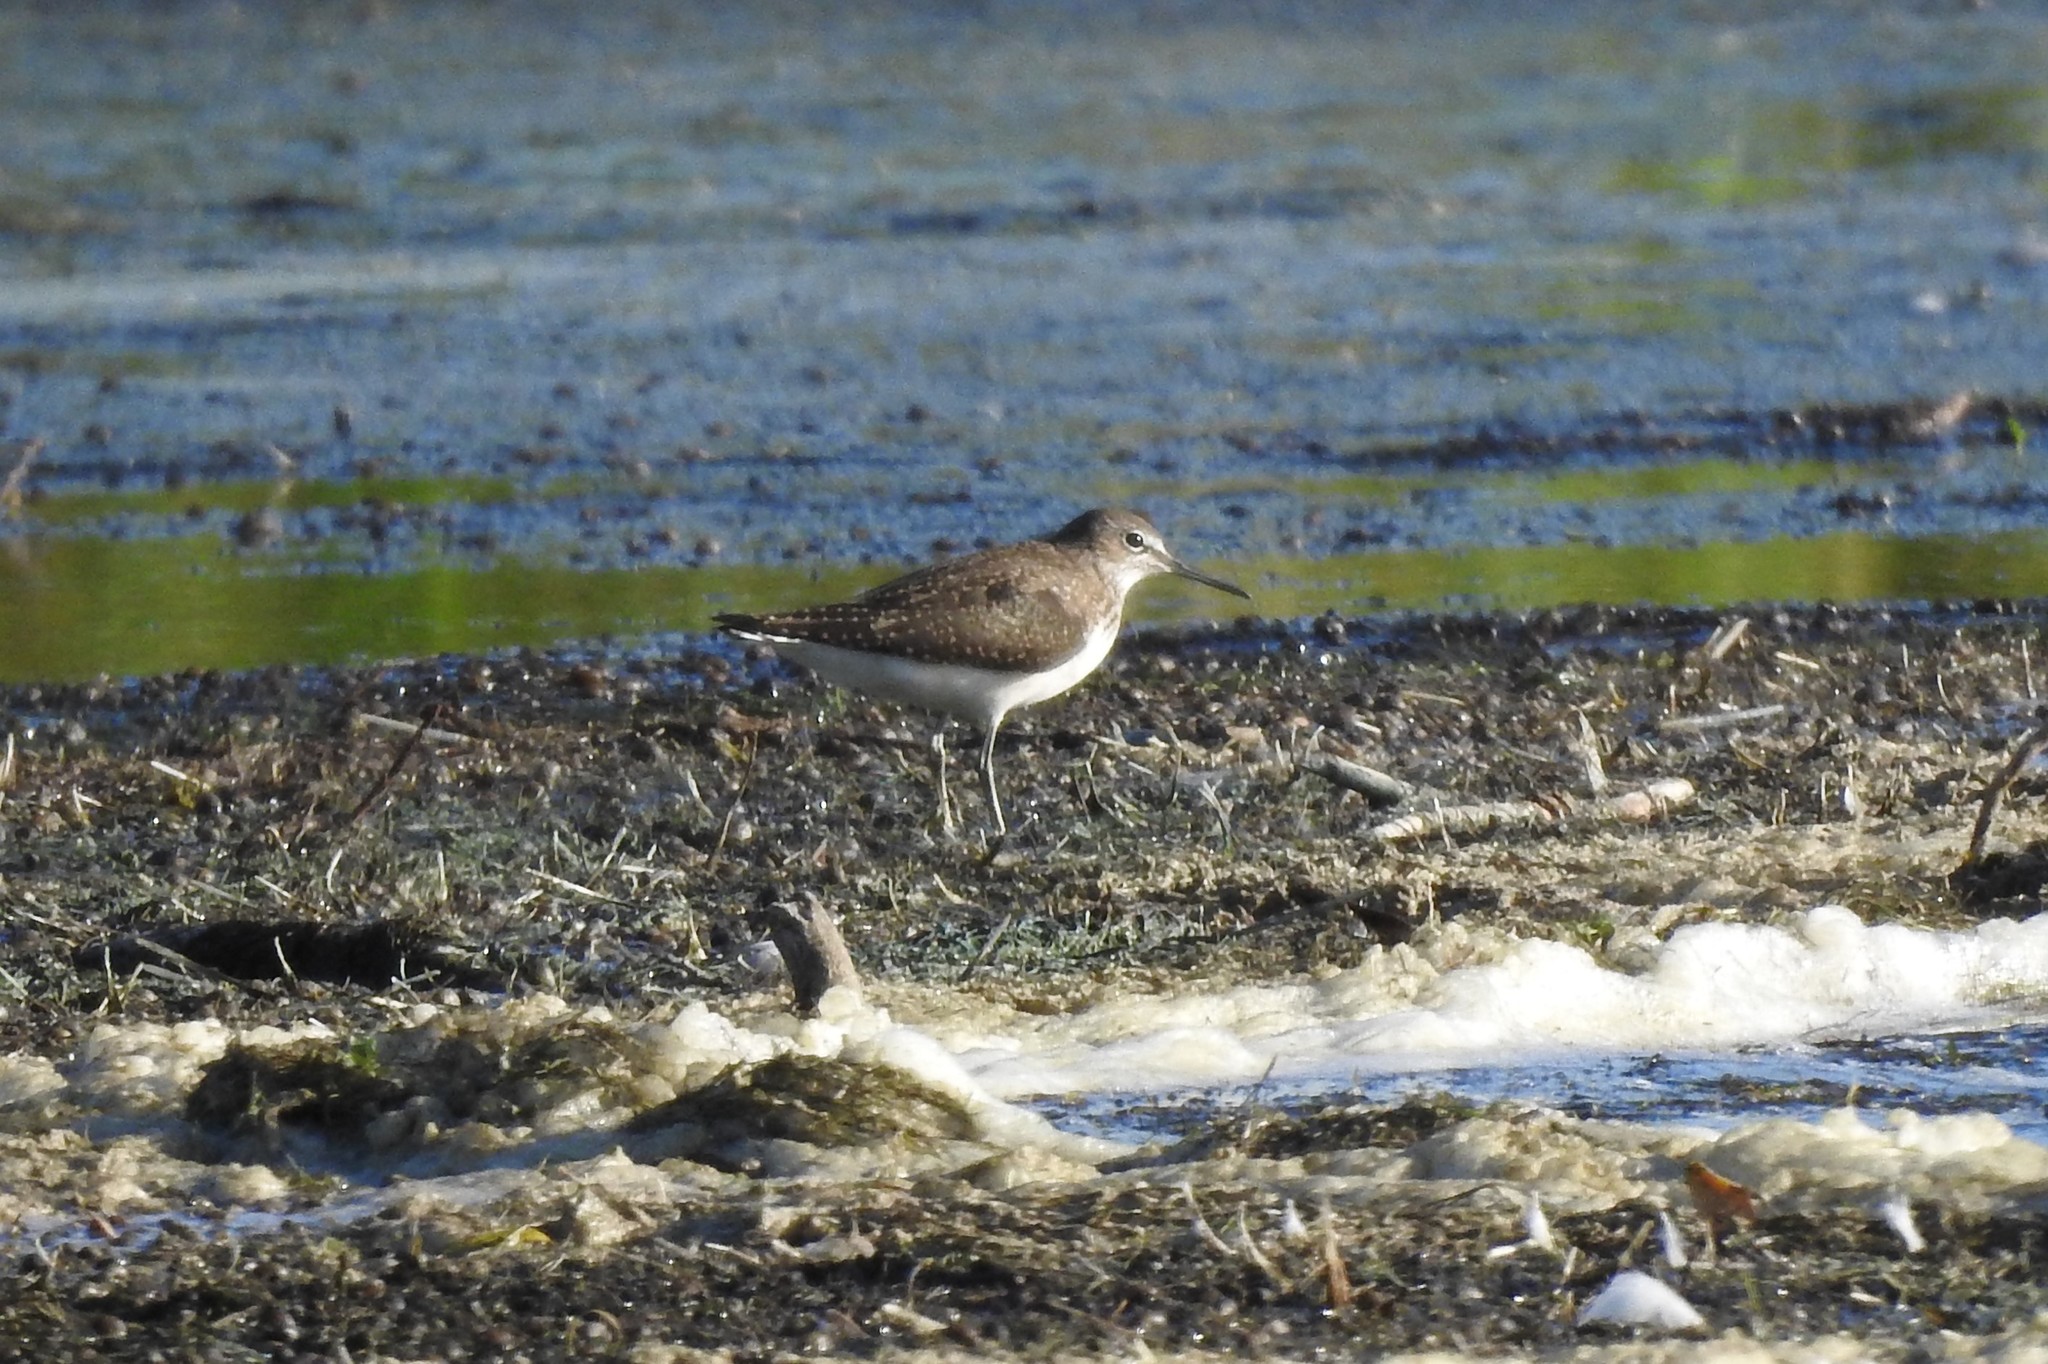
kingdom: Animalia
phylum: Chordata
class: Aves
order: Charadriiformes
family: Scolopacidae
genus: Tringa
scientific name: Tringa ochropus
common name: Green sandpiper
